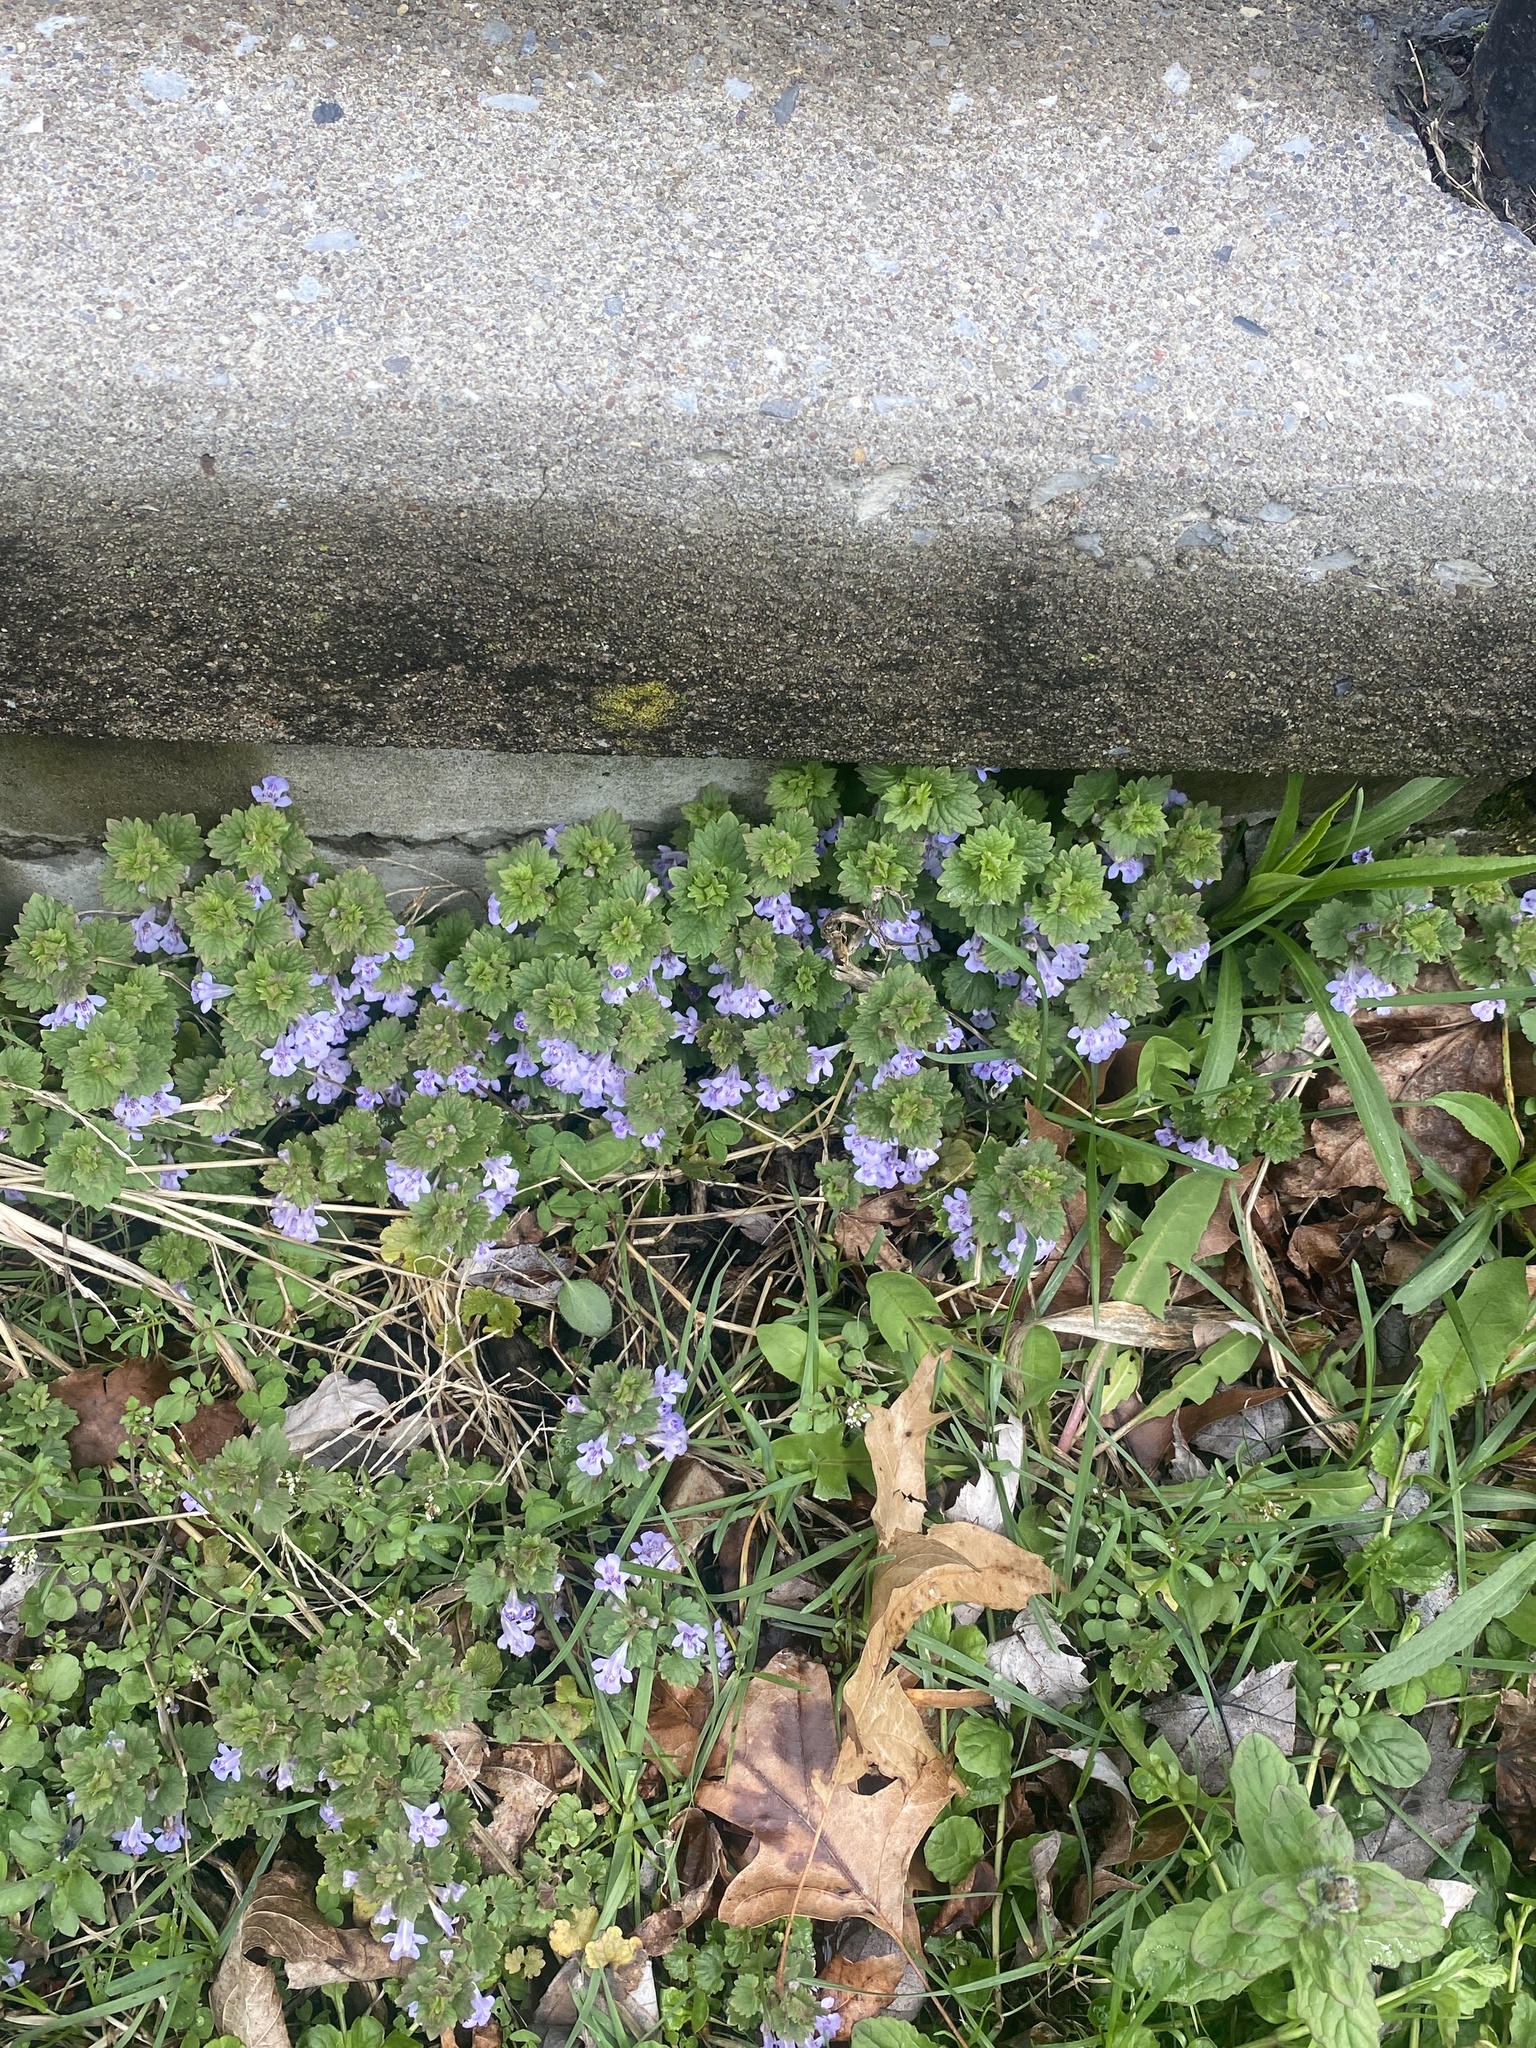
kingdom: Plantae
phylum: Tracheophyta
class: Magnoliopsida
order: Lamiales
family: Lamiaceae
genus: Glechoma
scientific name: Glechoma hederacea
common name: Ground ivy
